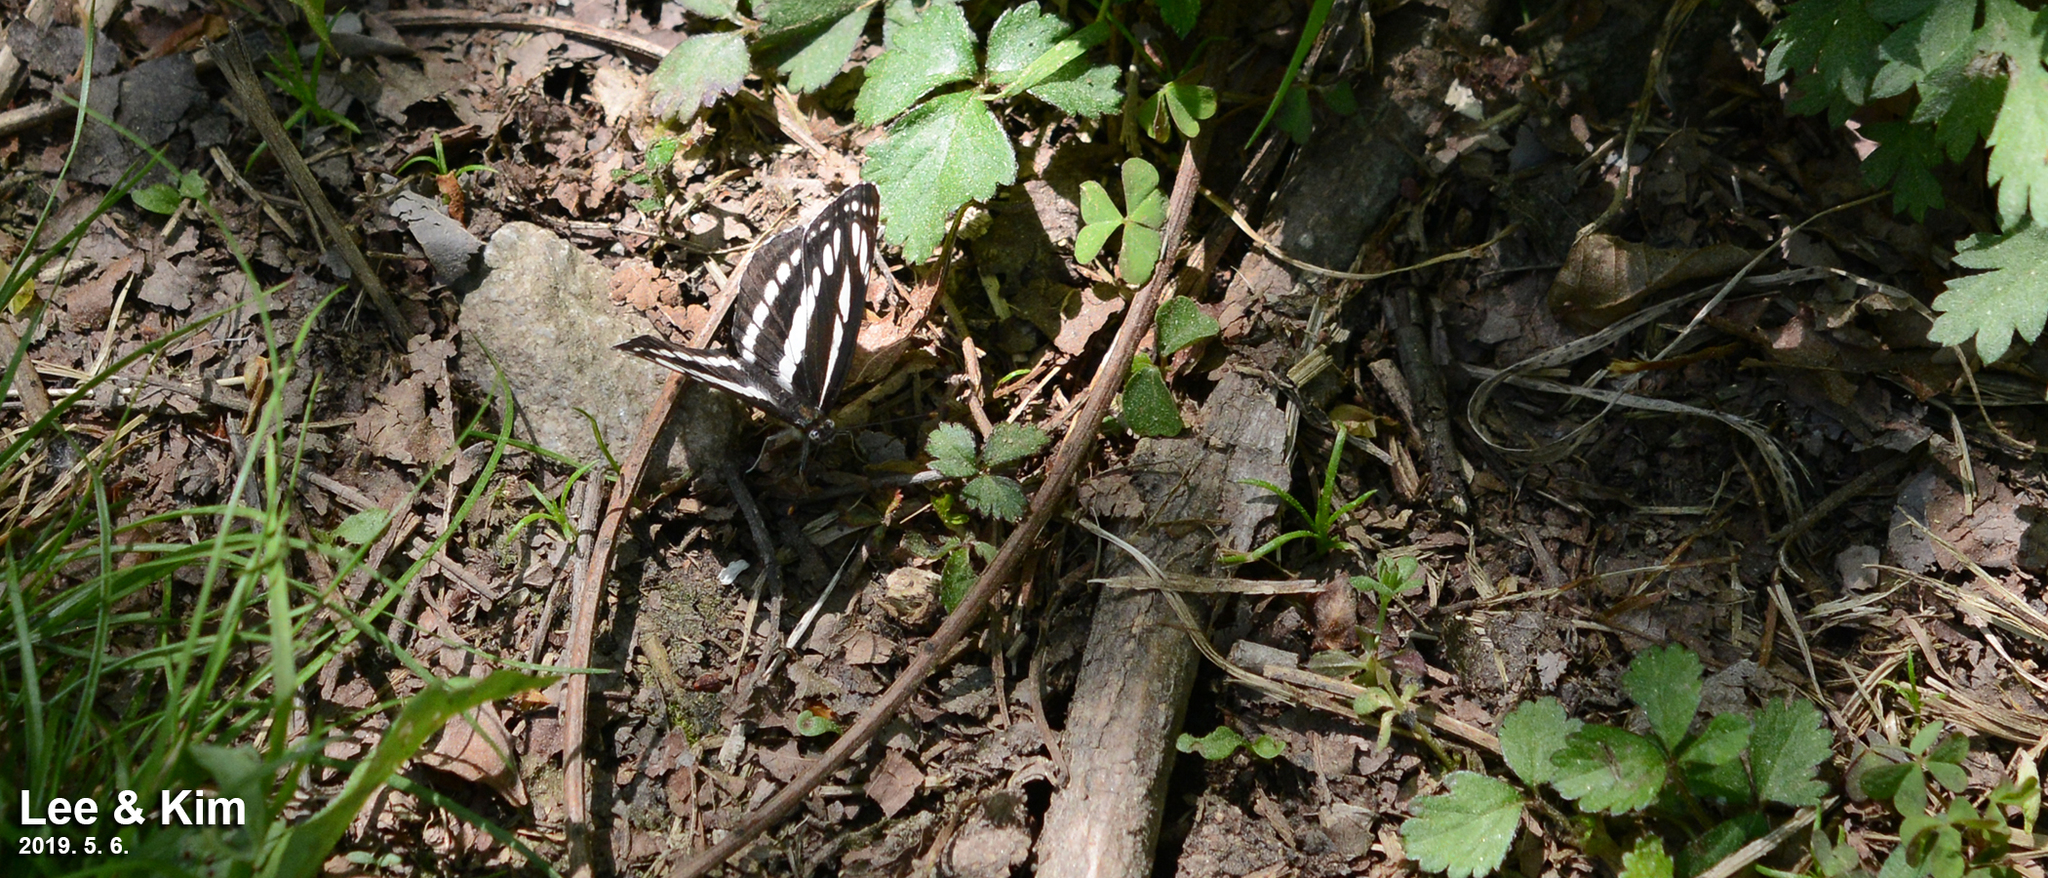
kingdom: Animalia
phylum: Arthropoda
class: Insecta
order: Lepidoptera
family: Nymphalidae
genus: Neptis
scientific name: Neptis sappho
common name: Common glider
